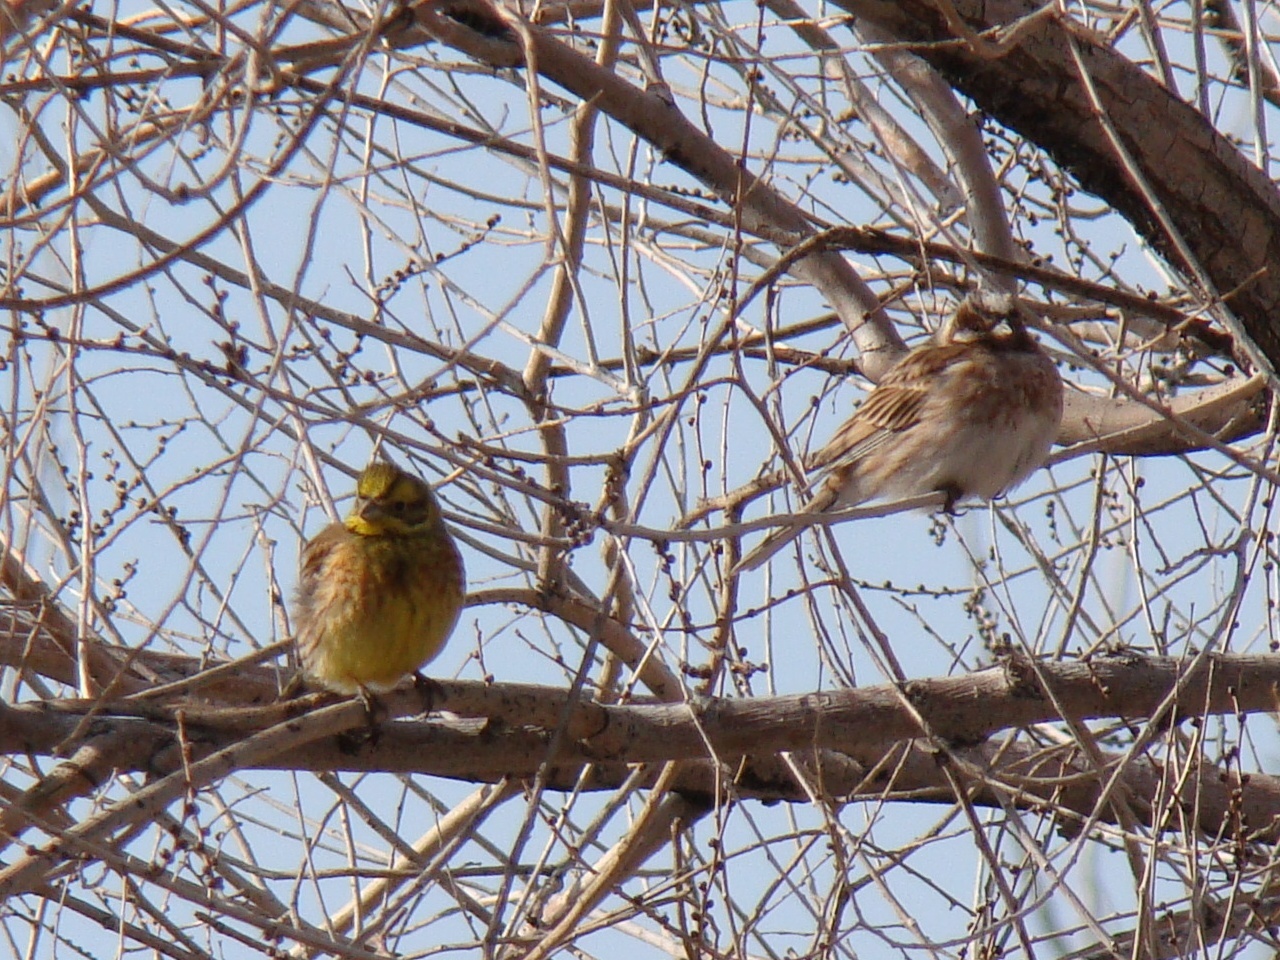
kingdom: Animalia
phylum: Chordata
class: Aves
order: Passeriformes
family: Emberizidae
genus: Emberiza
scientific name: Emberiza leucocephalos
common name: Pine bunting
